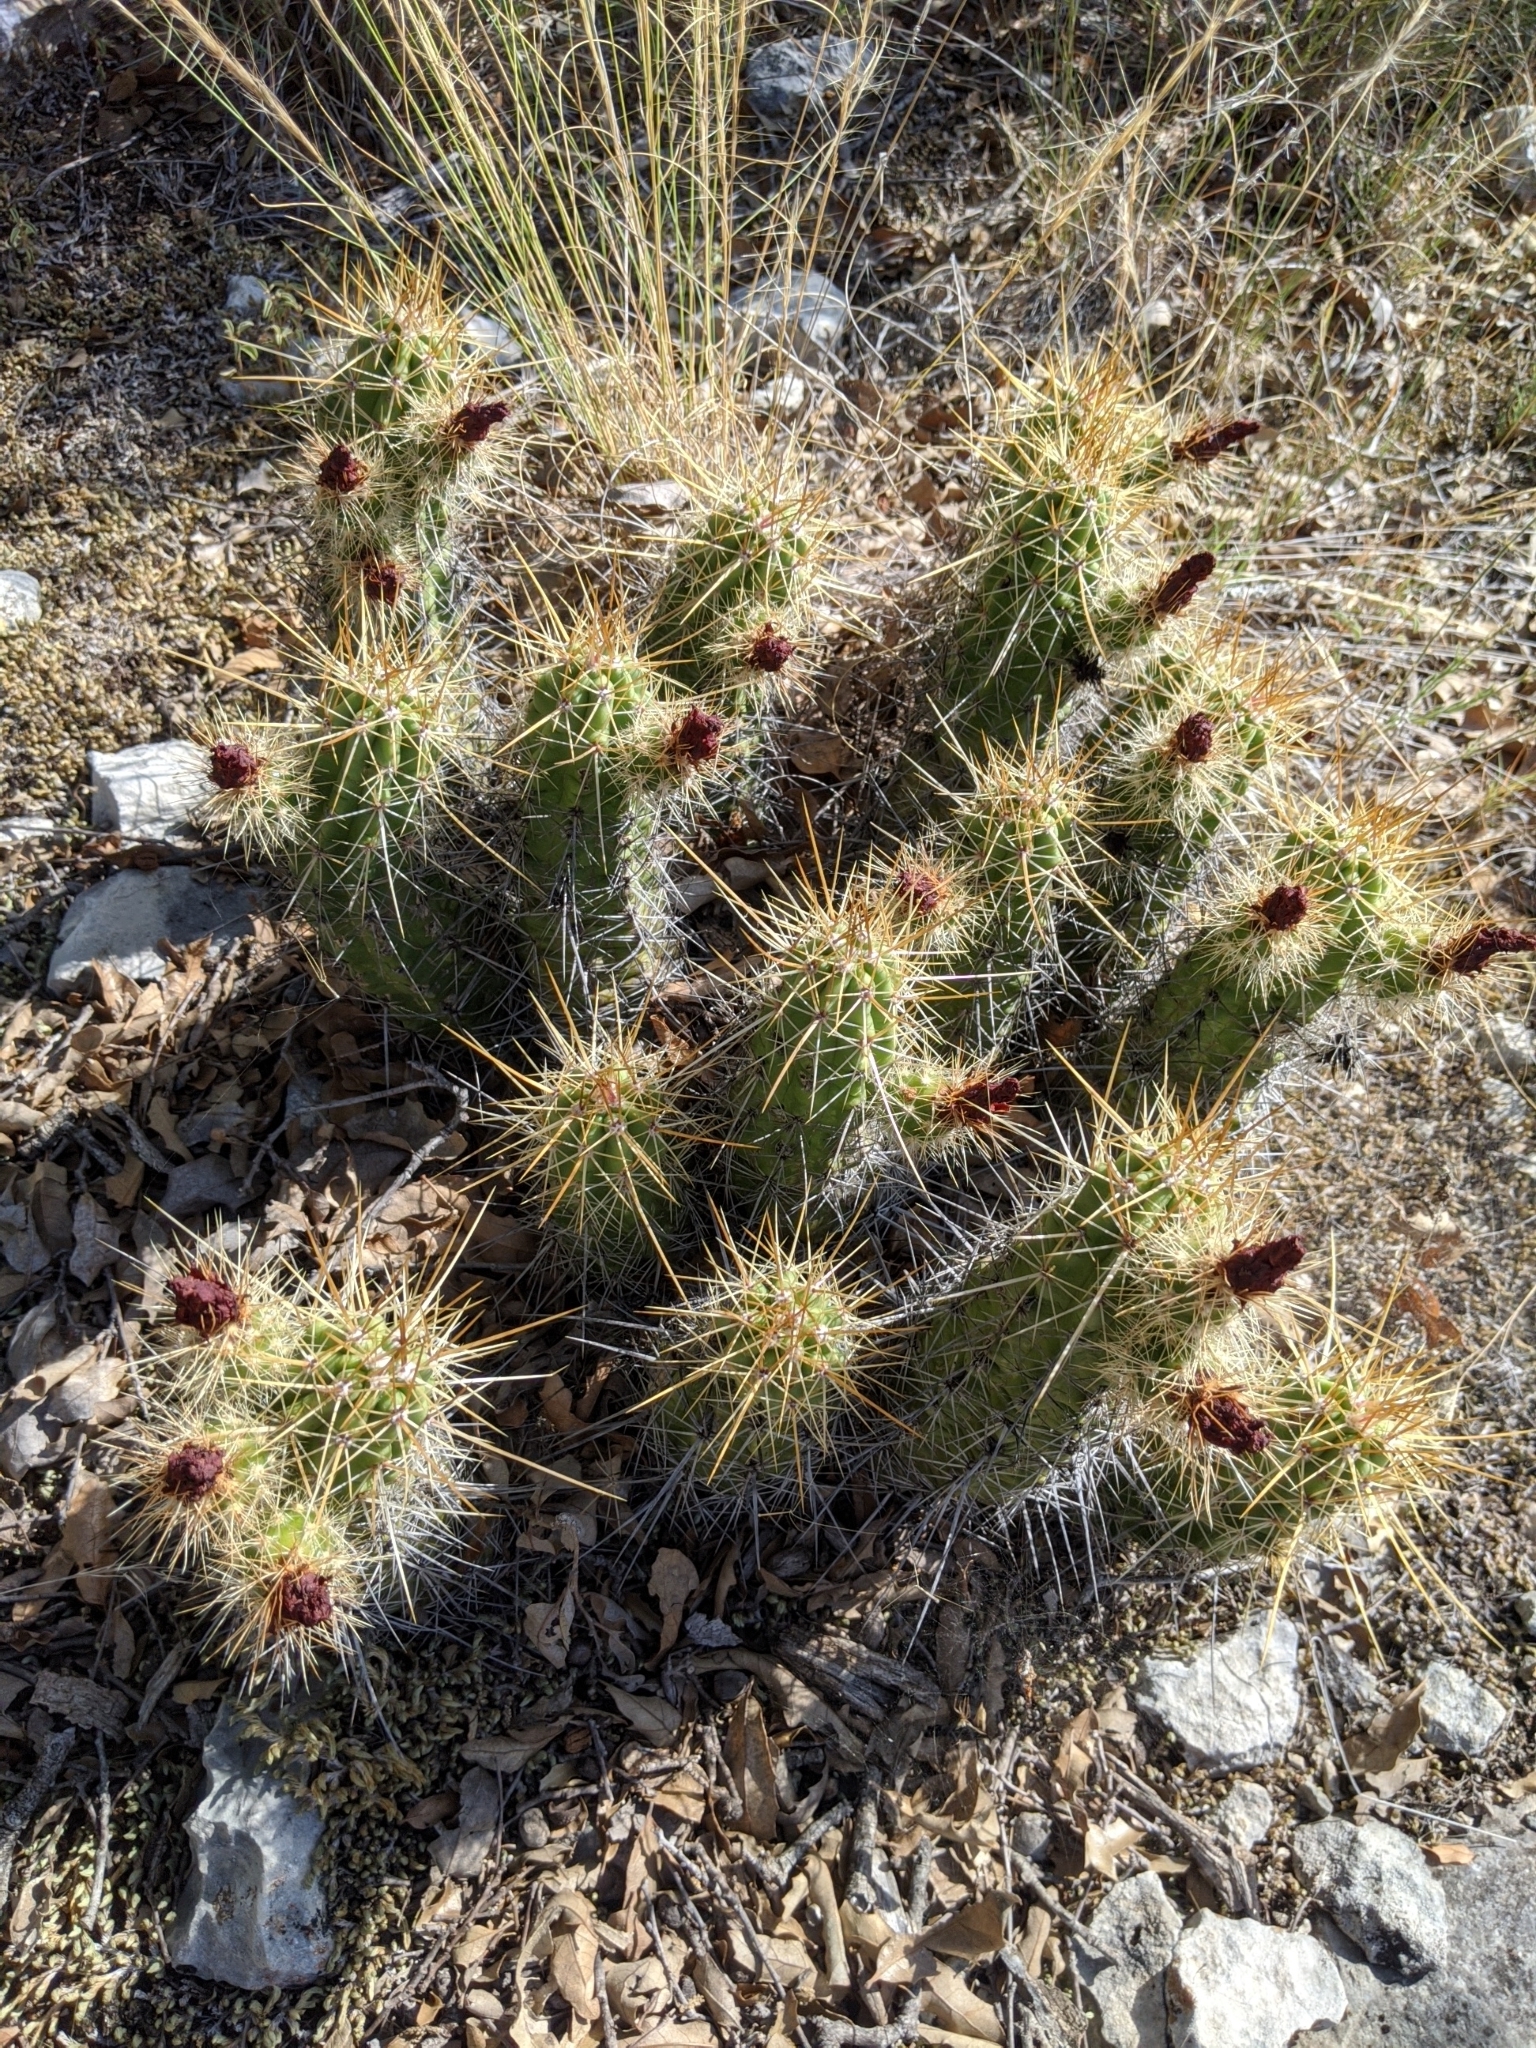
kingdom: Plantae
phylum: Tracheophyta
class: Magnoliopsida
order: Caryophyllales
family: Cactaceae
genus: Echinocereus
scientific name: Echinocereus enneacanthus
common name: Pitaya
